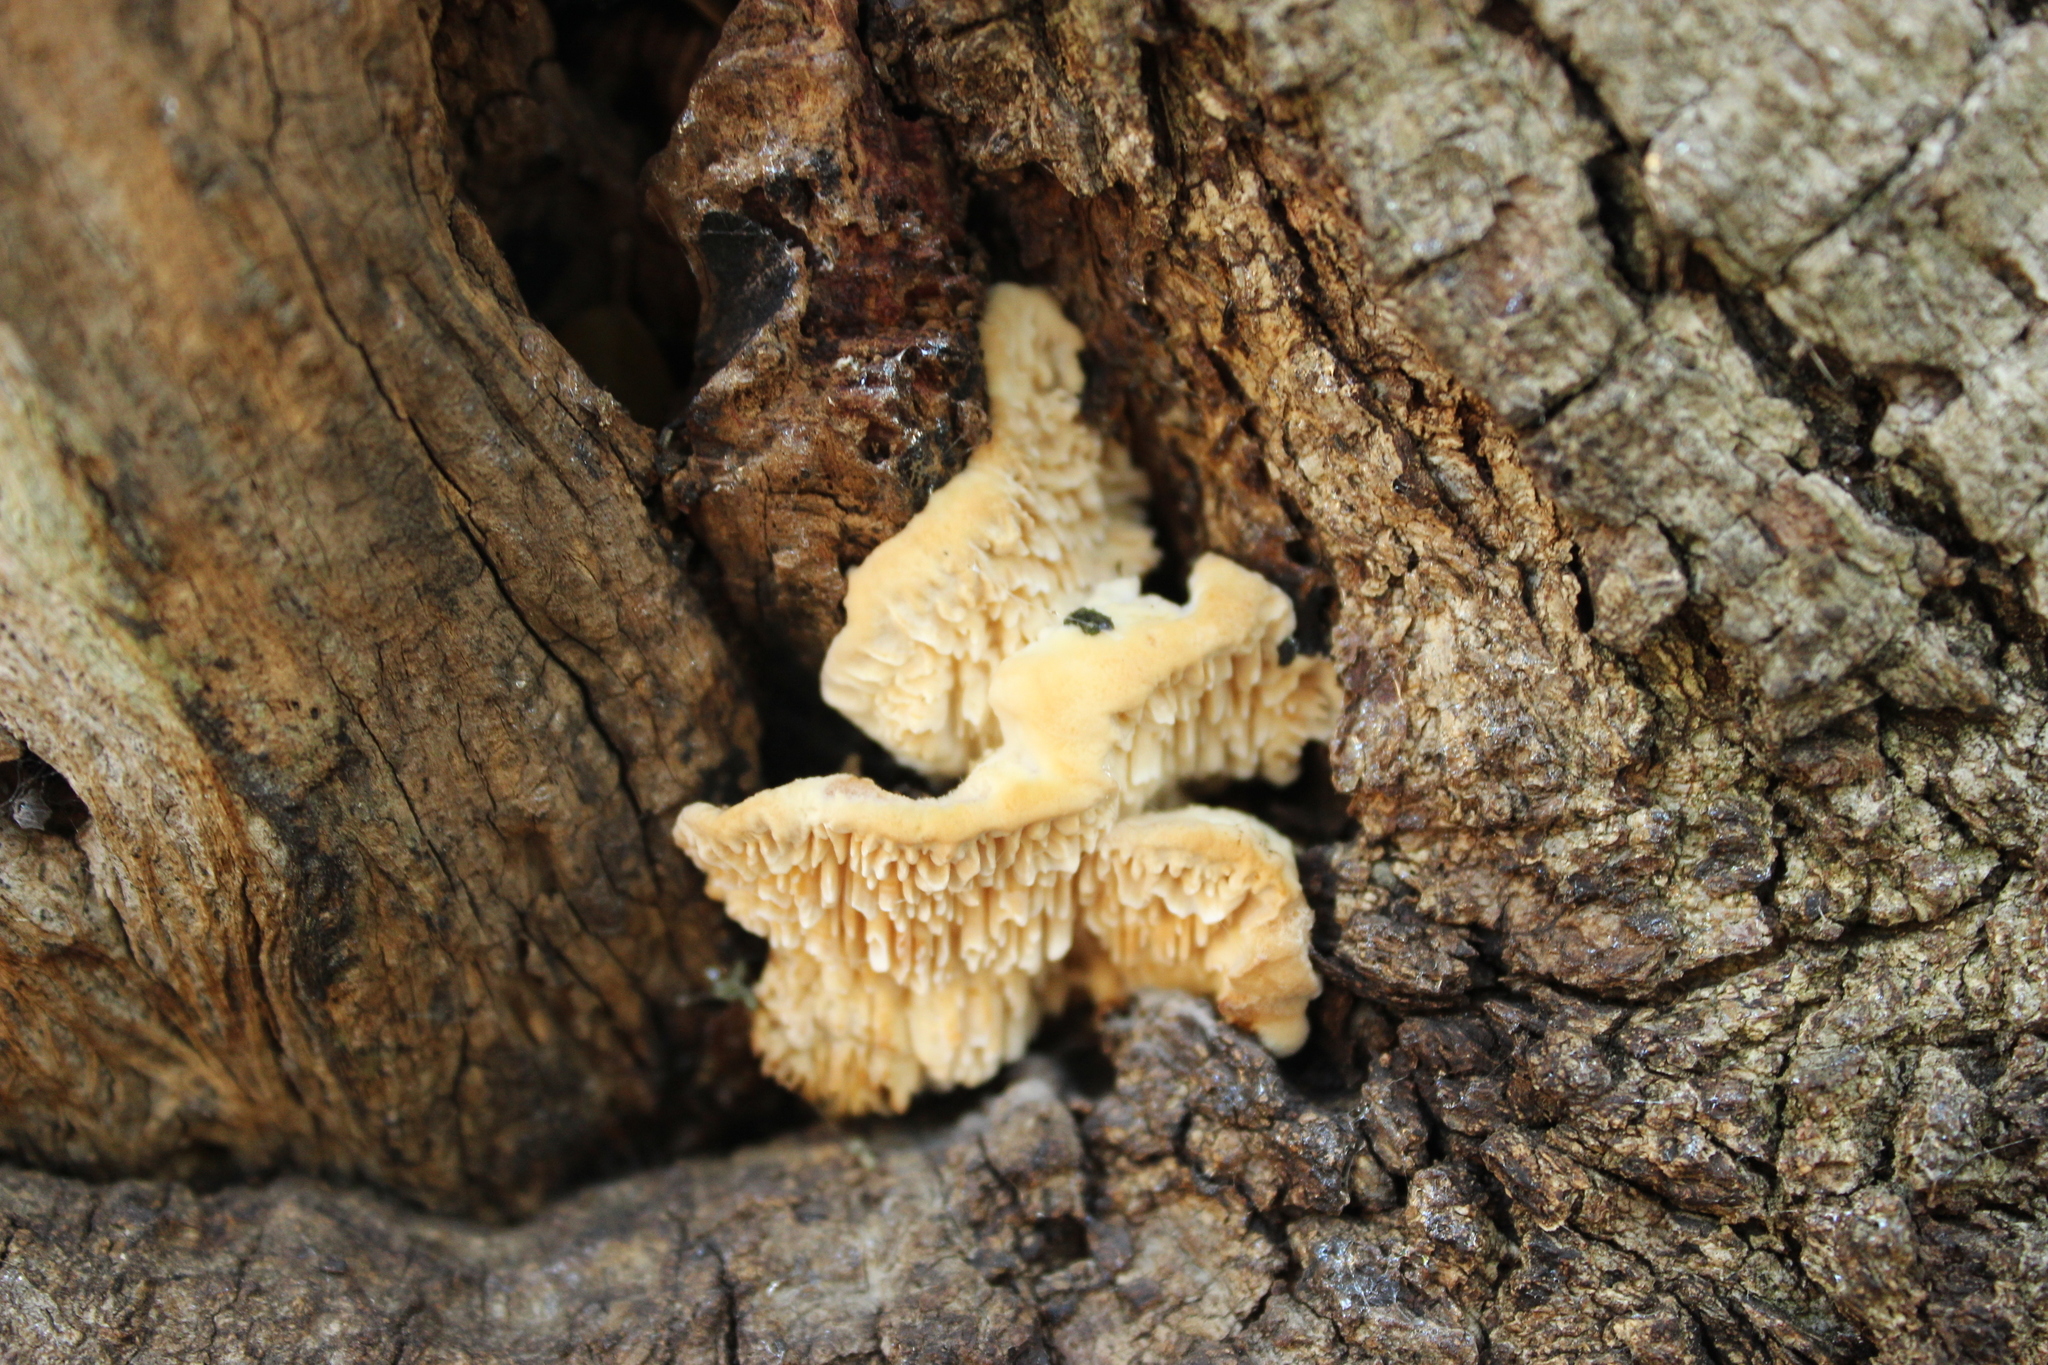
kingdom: Fungi
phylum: Basidiomycota
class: Agaricomycetes
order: Polyporales
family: Irpicaceae
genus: Irpex
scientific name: Irpex lacteus
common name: Milk-white toothed polypore
